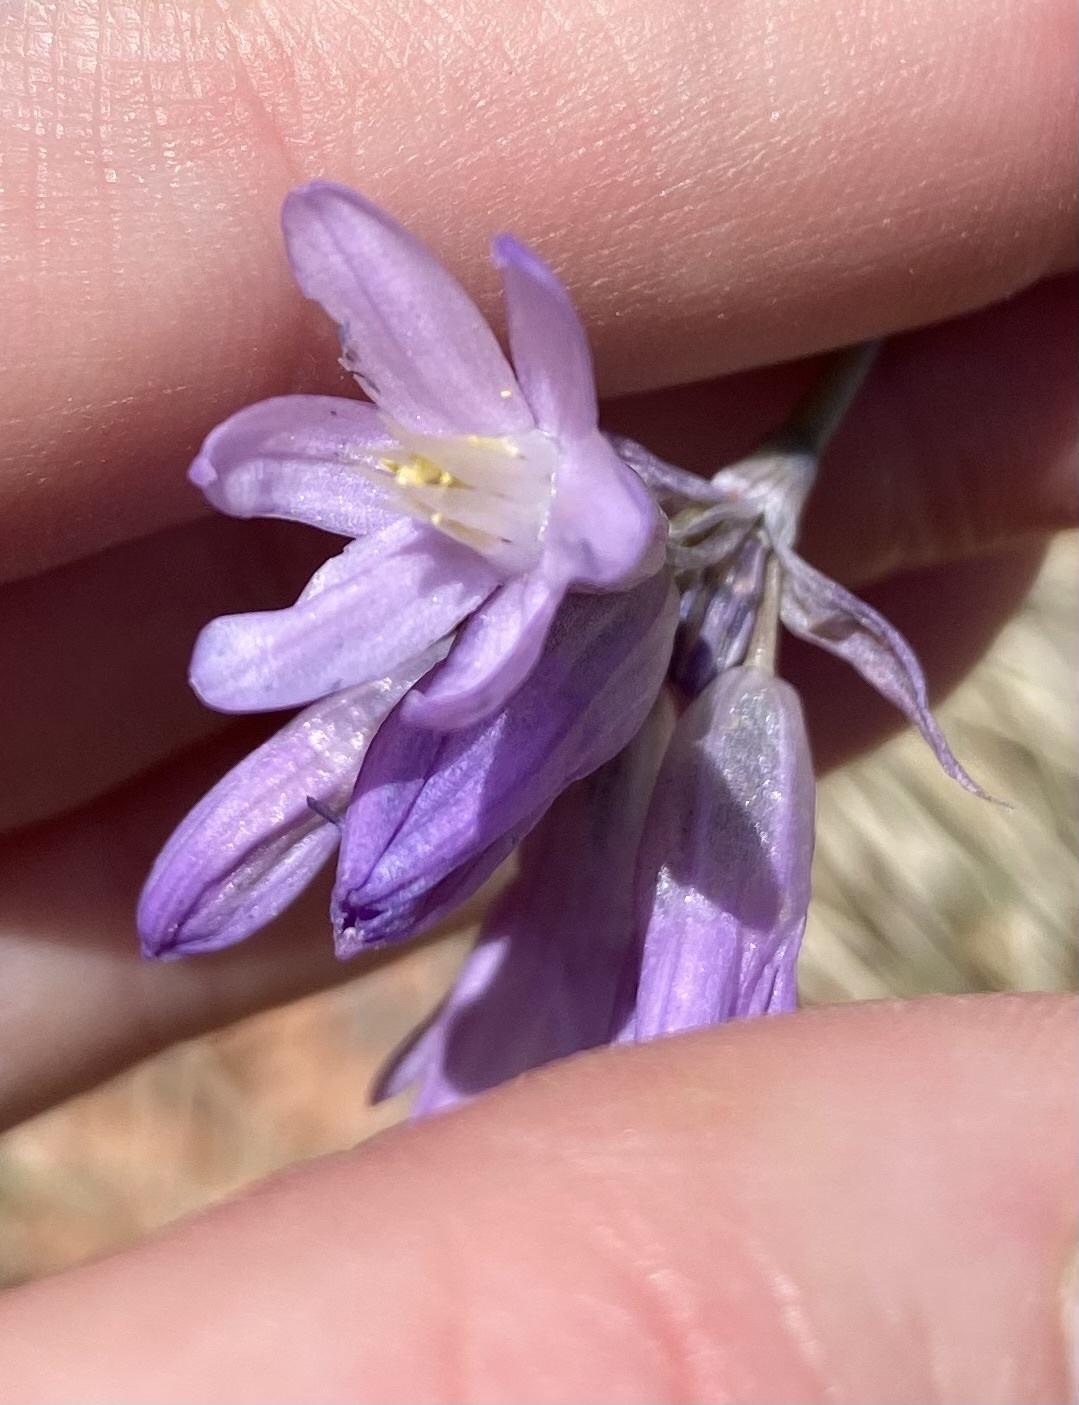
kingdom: Plantae
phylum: Tracheophyta
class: Liliopsida
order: Asparagales
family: Asparagaceae
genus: Dipterostemon
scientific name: Dipterostemon capitatus
